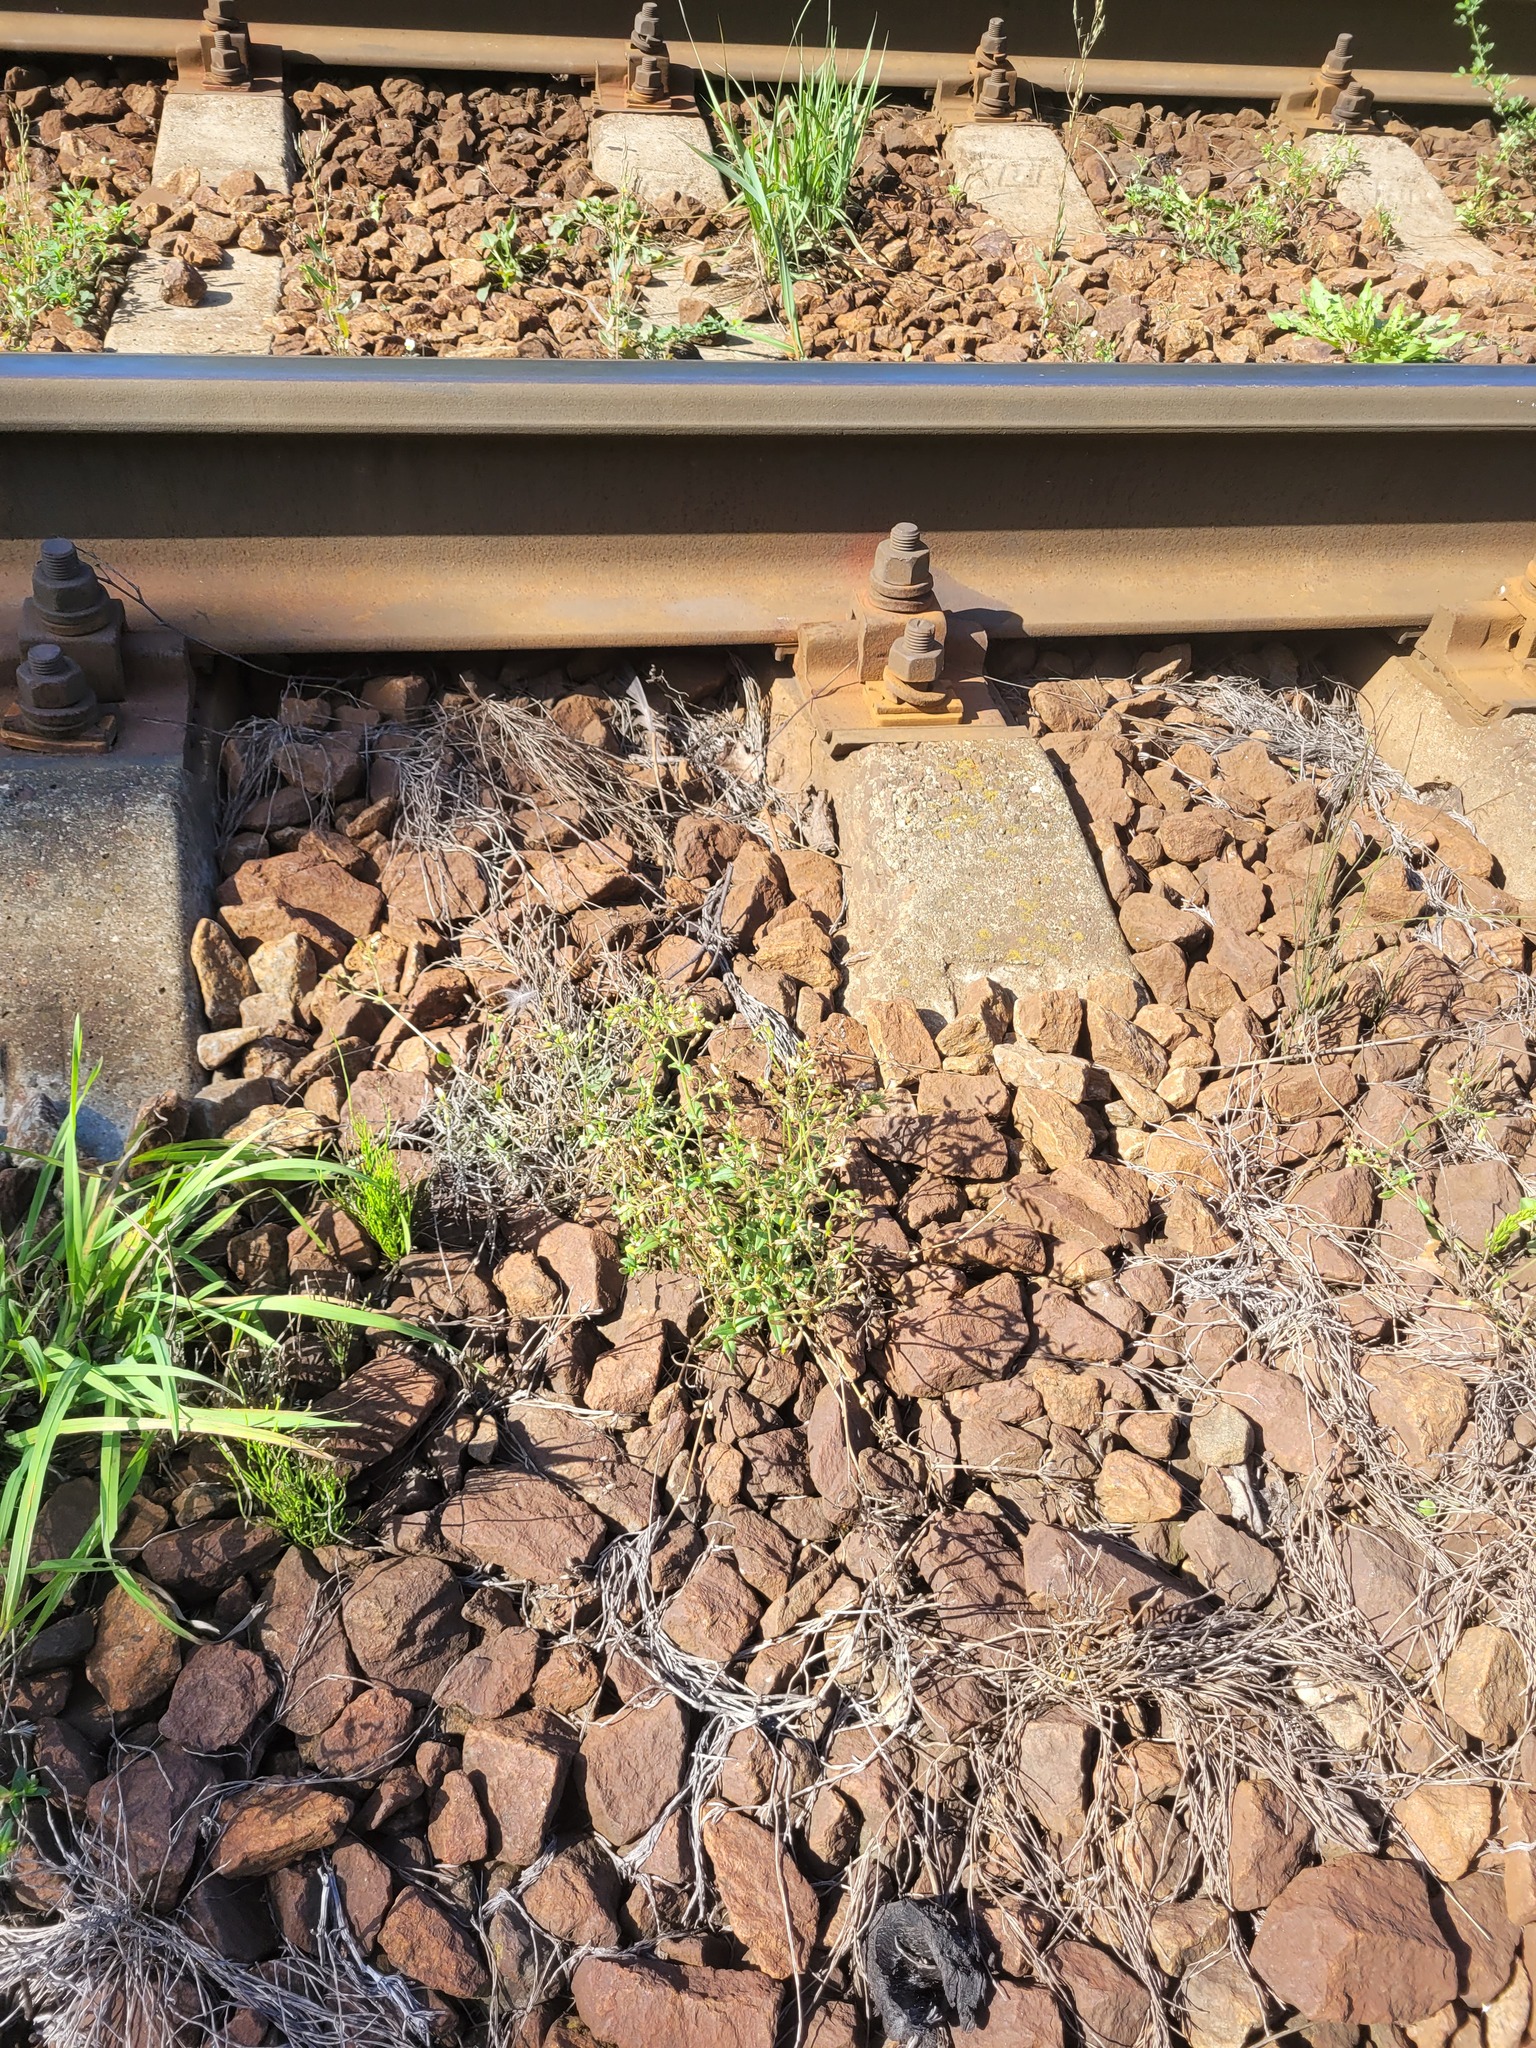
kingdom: Plantae
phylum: Tracheophyta
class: Magnoliopsida
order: Caryophyllales
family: Caryophyllaceae
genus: Cerastium
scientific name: Cerastium holosteoides
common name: Big chickweed
